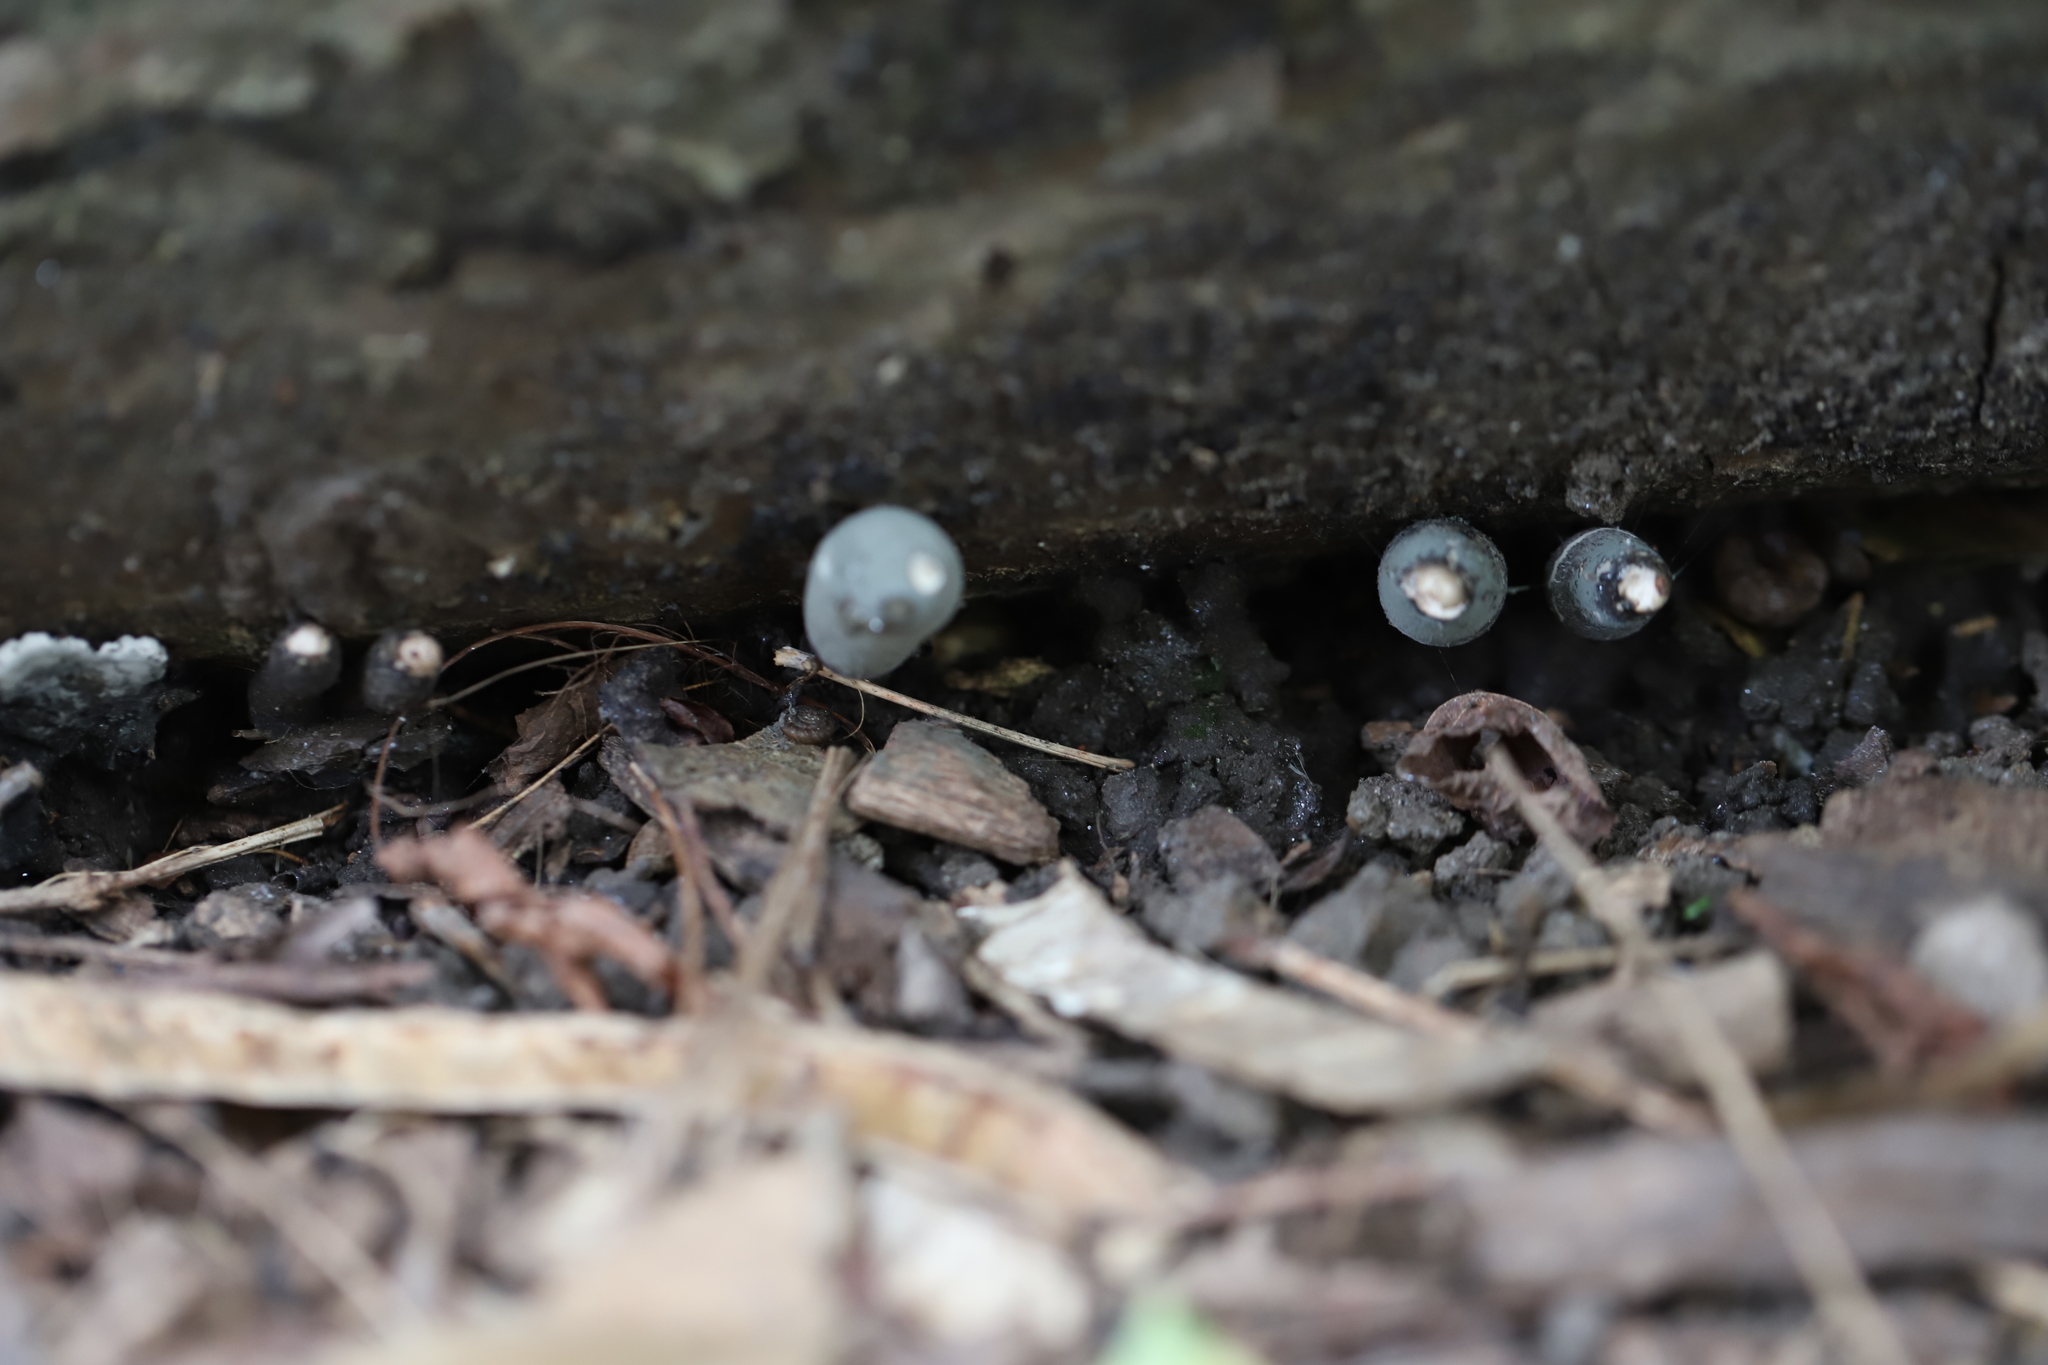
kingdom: Fungi
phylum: Ascomycota
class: Sordariomycetes
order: Xylariales
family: Xylariaceae
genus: Xylaria
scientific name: Xylaria polymorpha
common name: Dead man's fingers
